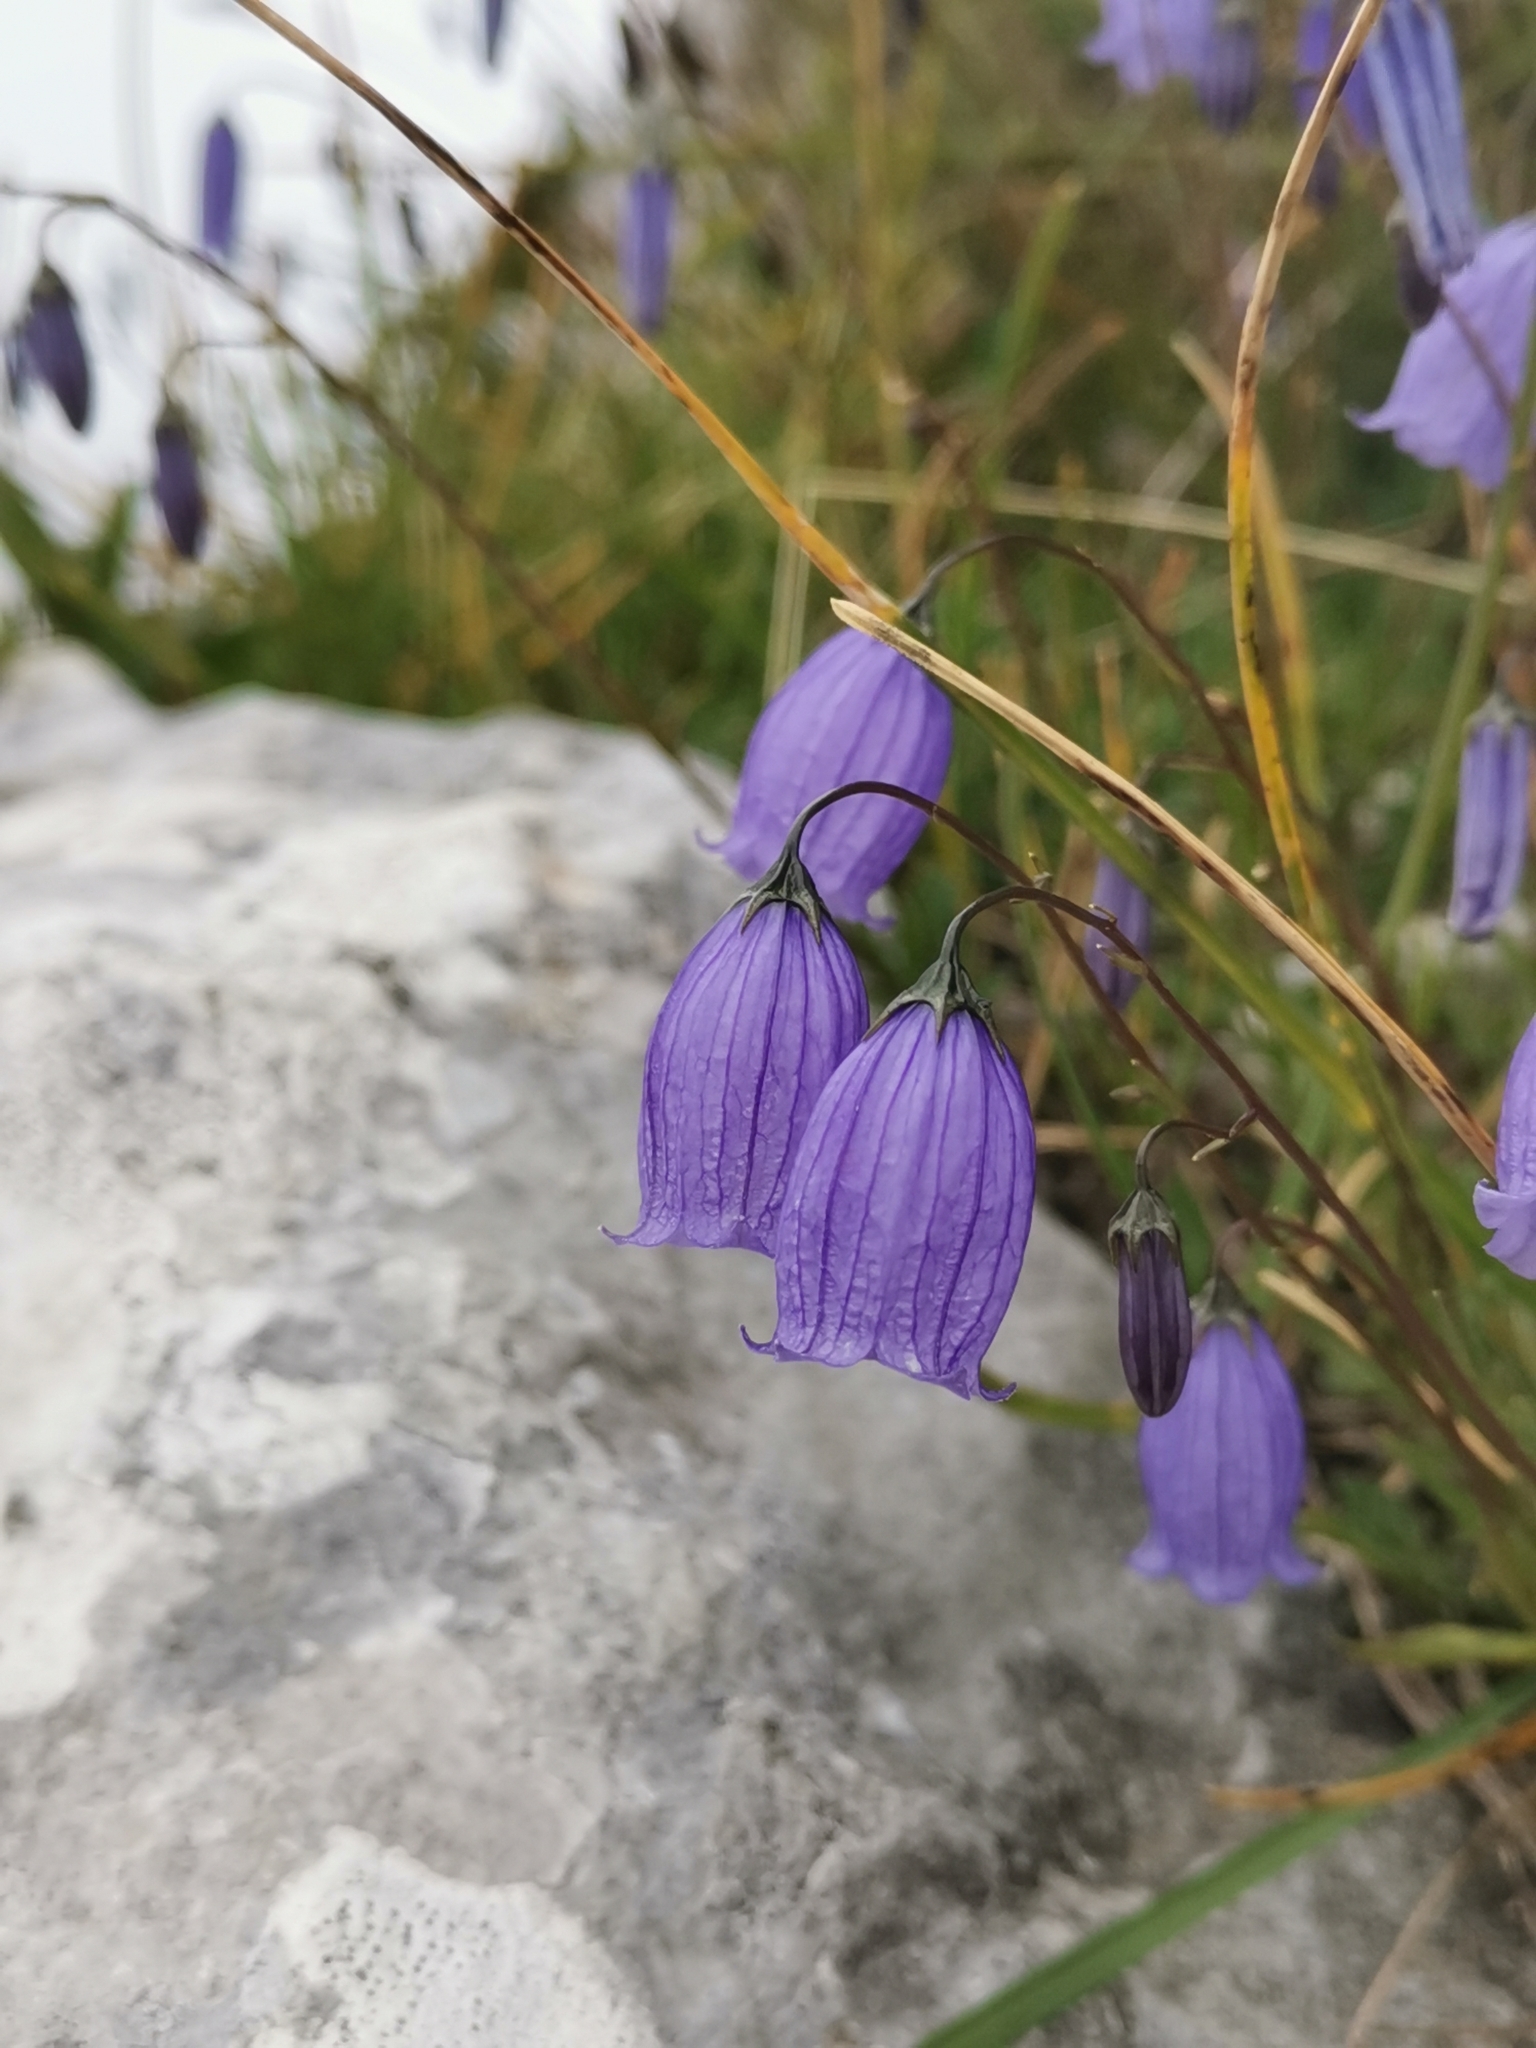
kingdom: Plantae
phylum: Tracheophyta
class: Magnoliopsida
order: Asterales
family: Campanulaceae
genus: Campanula
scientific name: Campanula cespitosa
